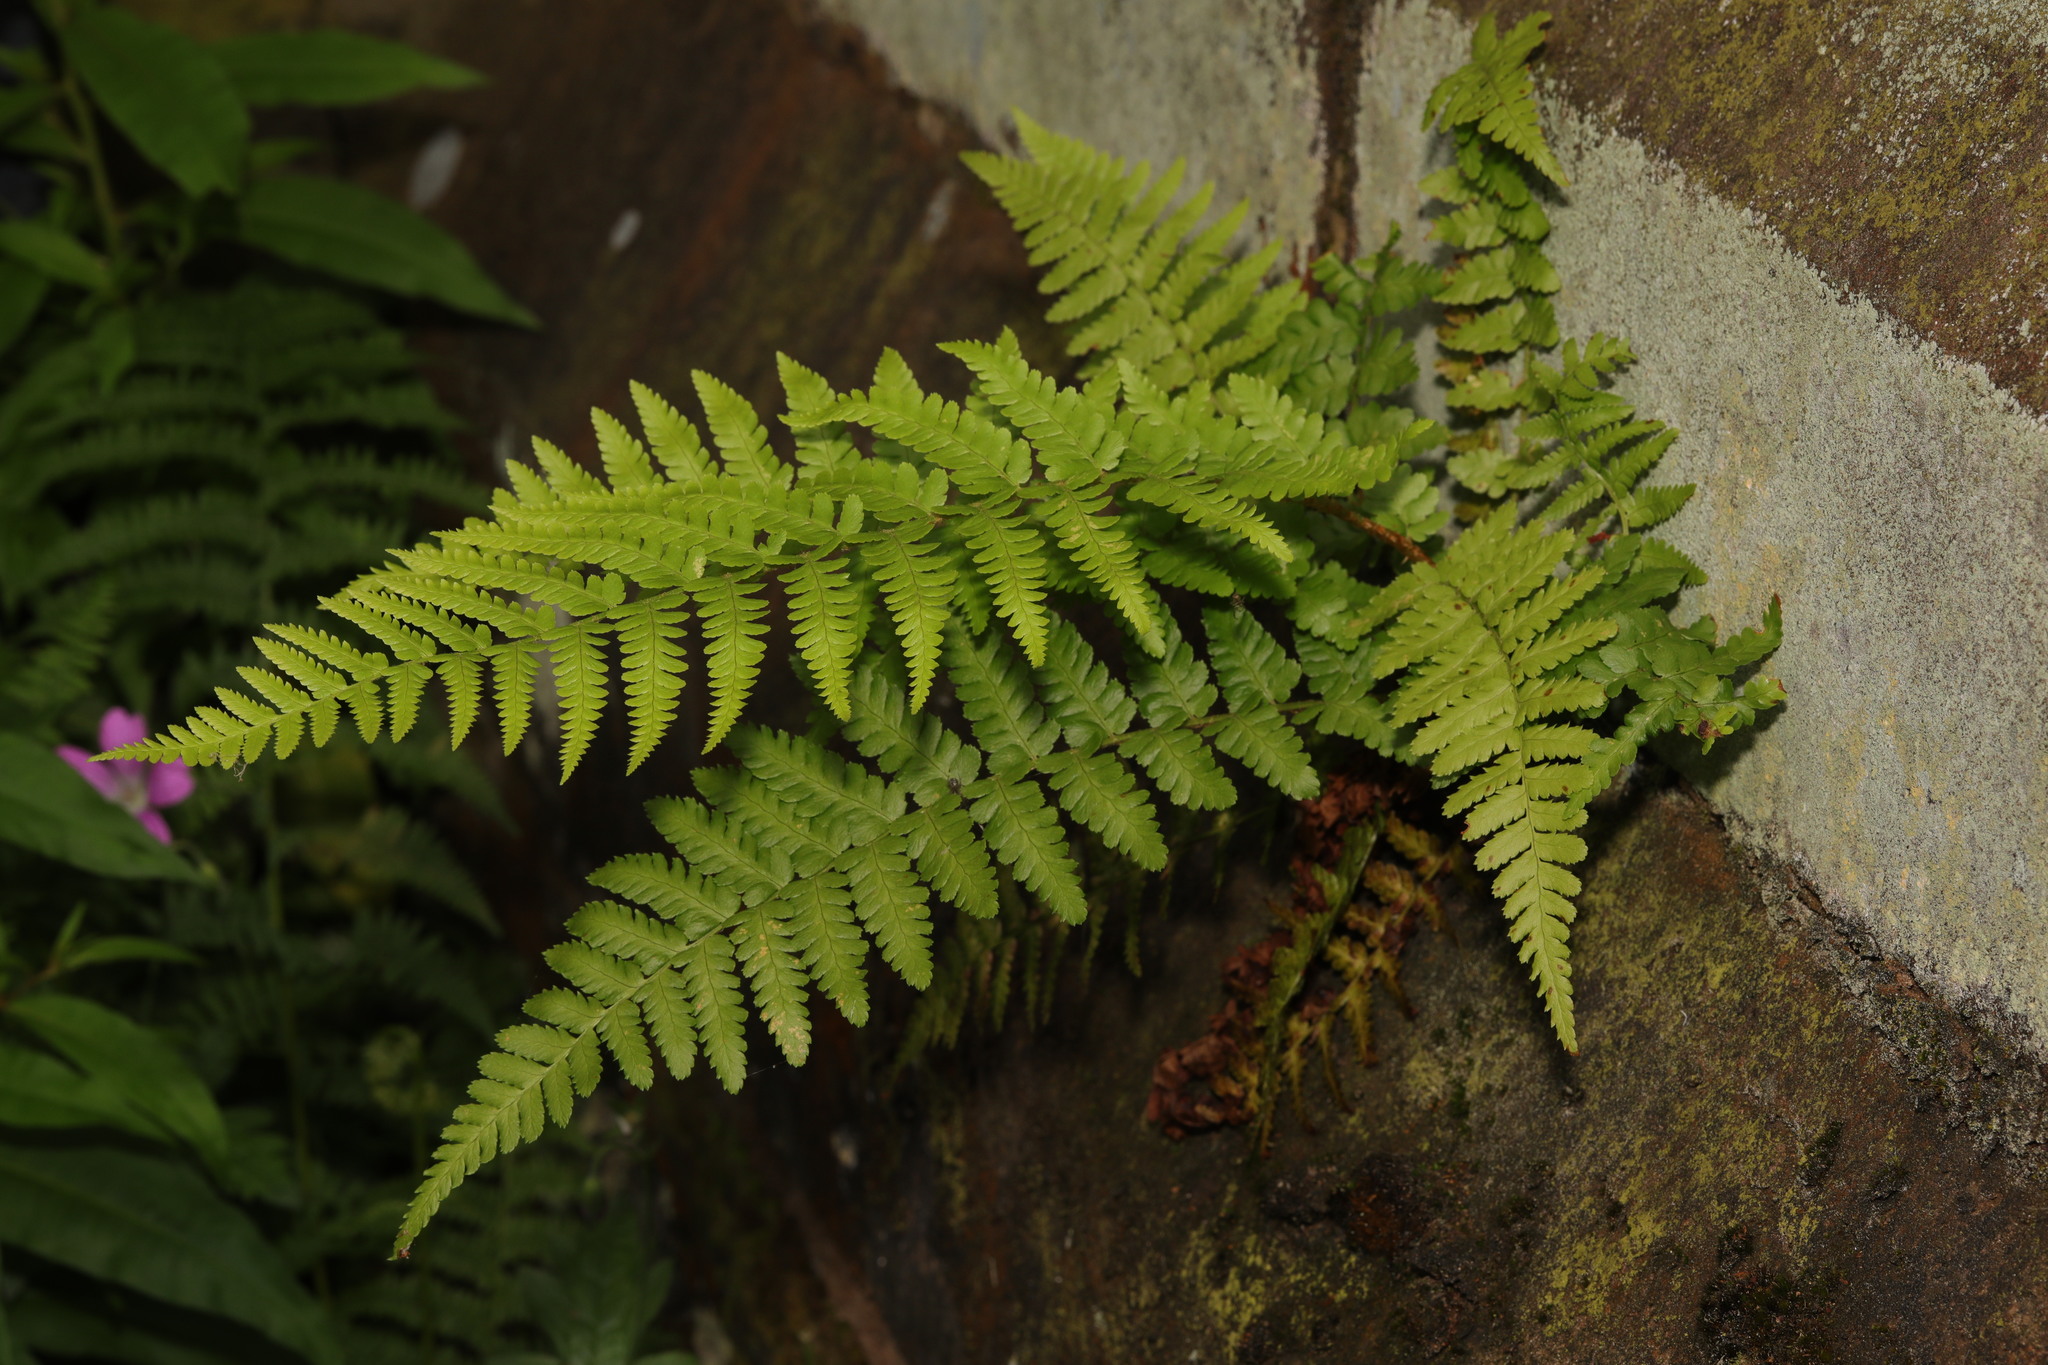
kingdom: Plantae
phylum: Tracheophyta
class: Polypodiopsida
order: Polypodiales
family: Dryopteridaceae
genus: Dryopteris
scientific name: Dryopteris filix-mas
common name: Male fern
